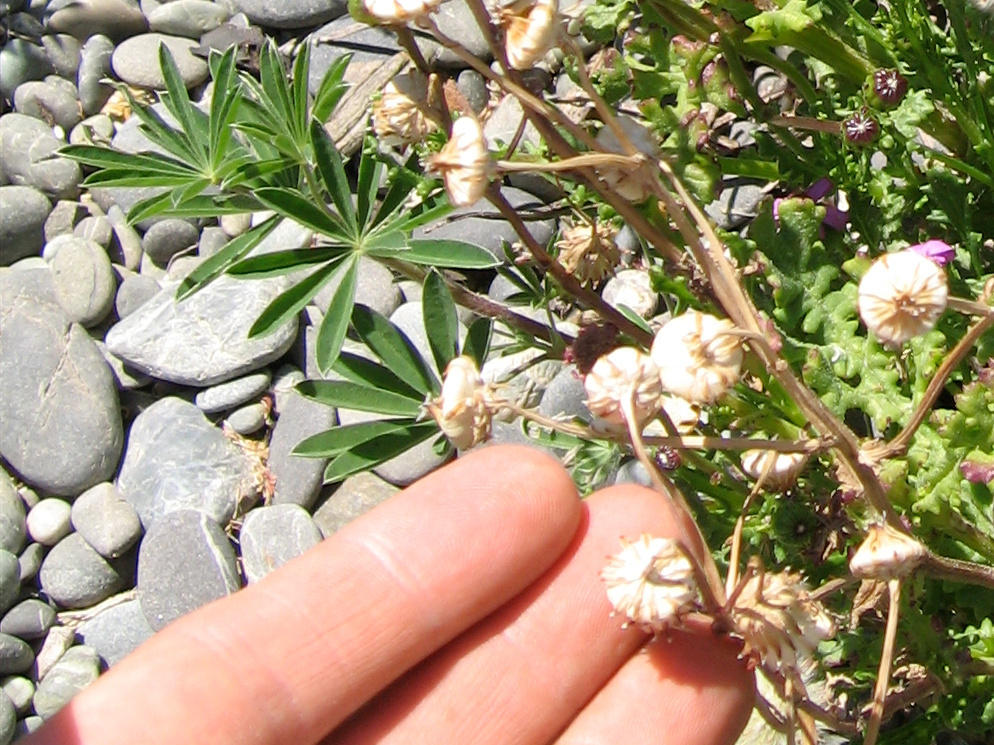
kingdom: Plantae
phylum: Tracheophyta
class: Magnoliopsida
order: Fabales
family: Fabaceae
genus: Lupinus
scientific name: Lupinus arboreus
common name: Yellow bush lupine
